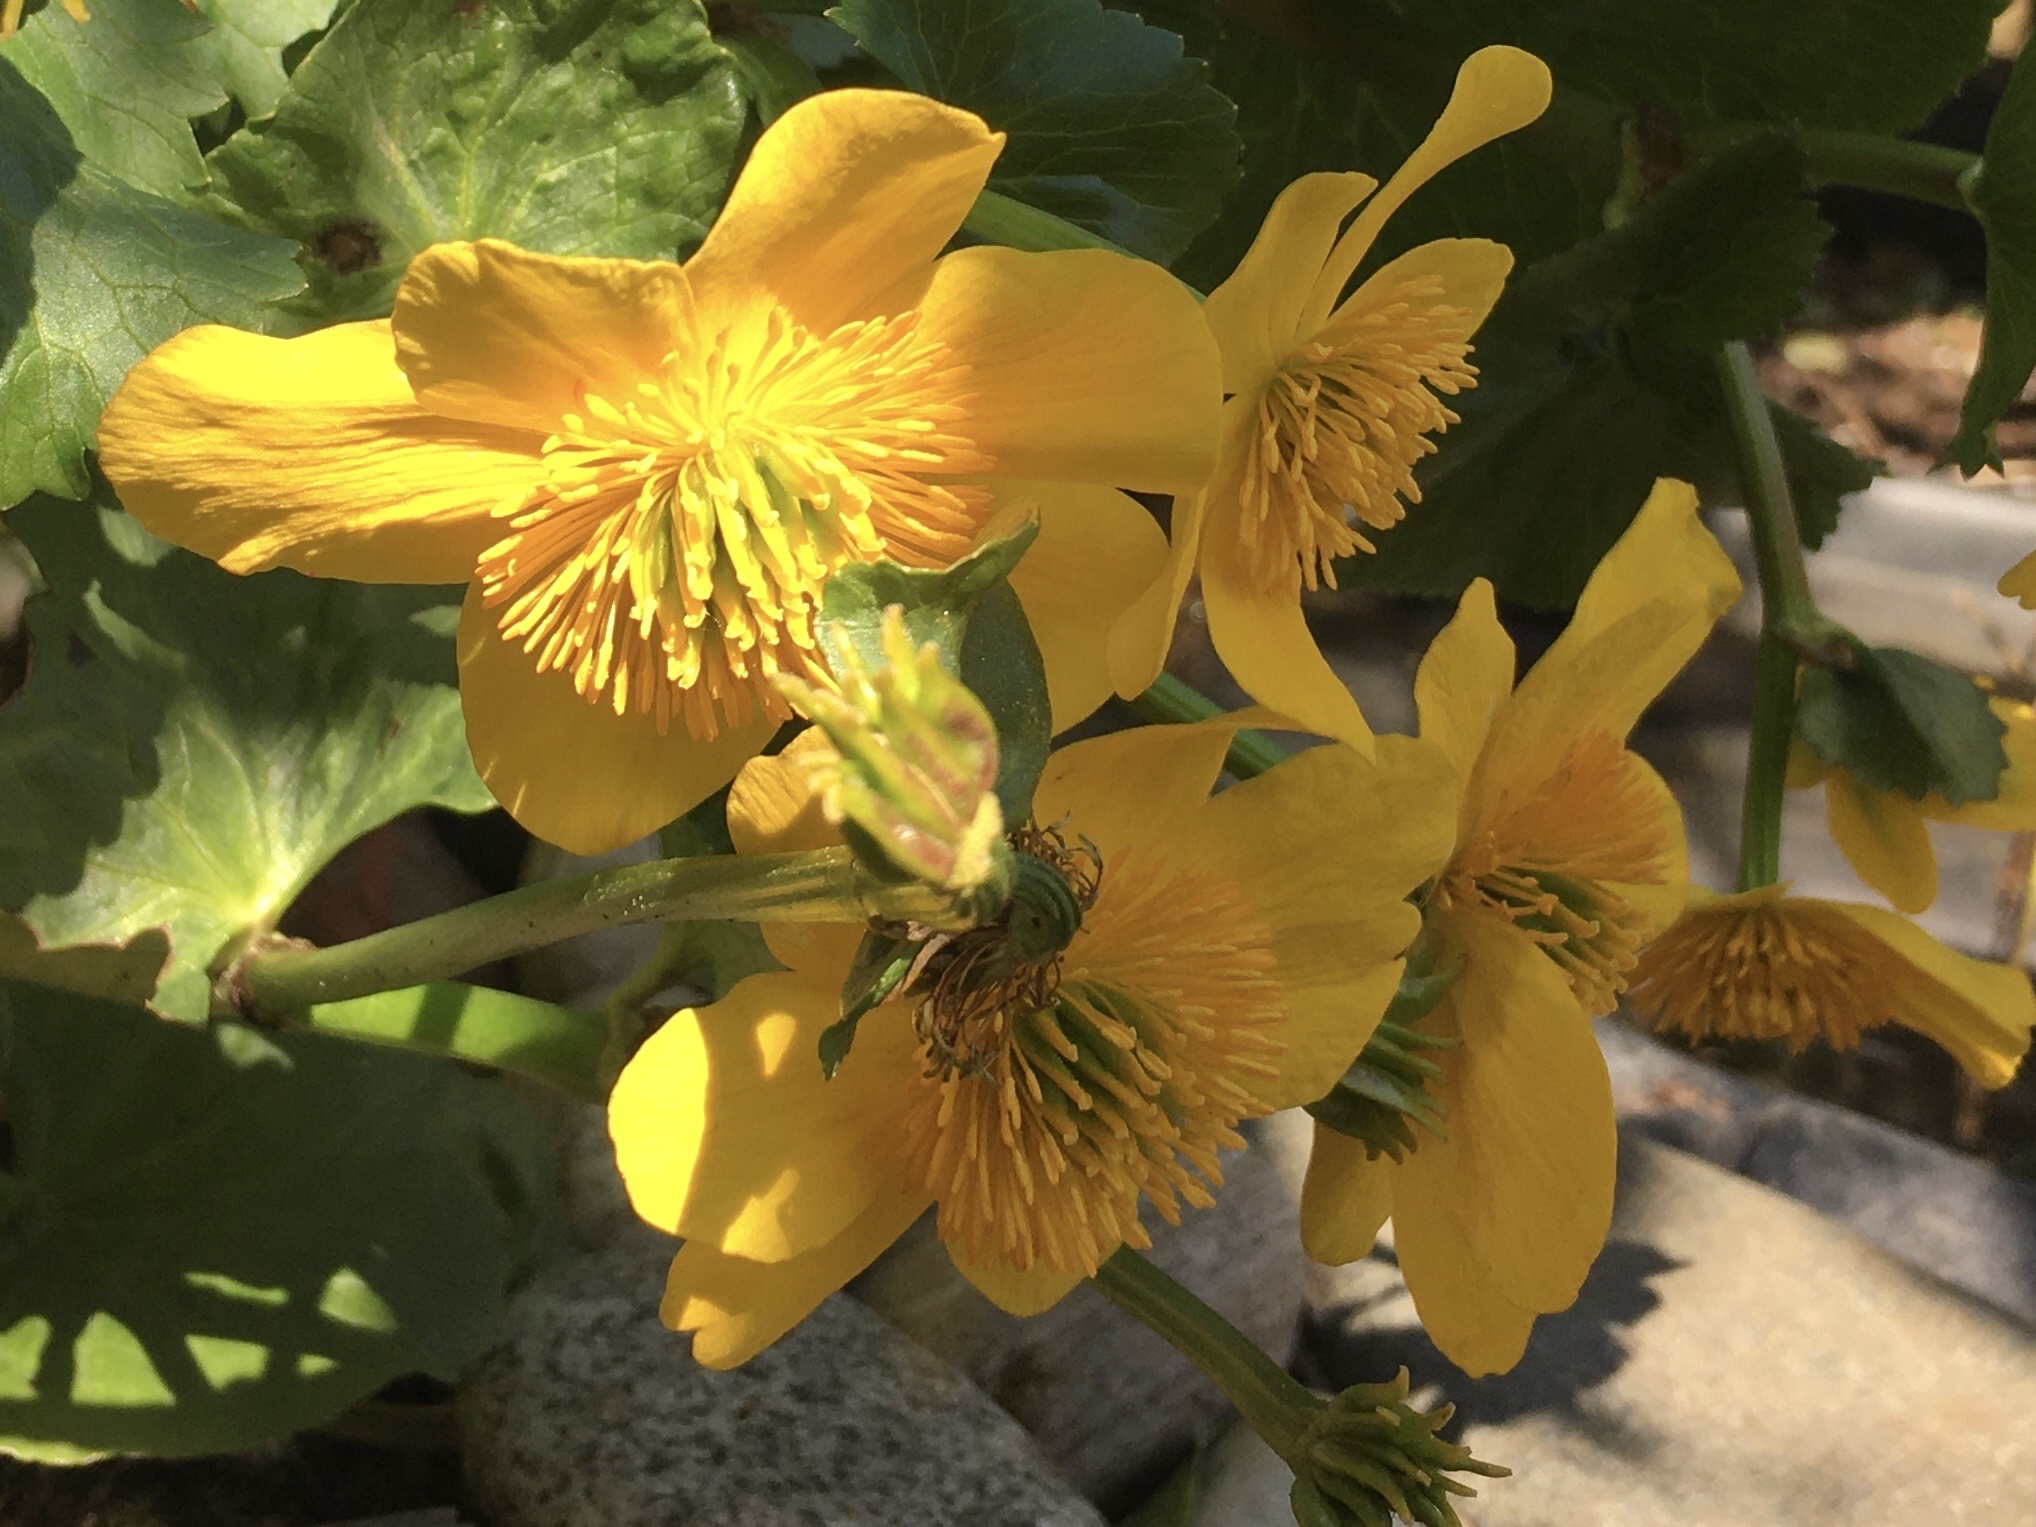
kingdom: Plantae
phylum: Tracheophyta
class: Magnoliopsida
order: Ranunculales
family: Ranunculaceae
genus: Caltha
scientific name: Caltha palustris
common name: Marsh marigold
